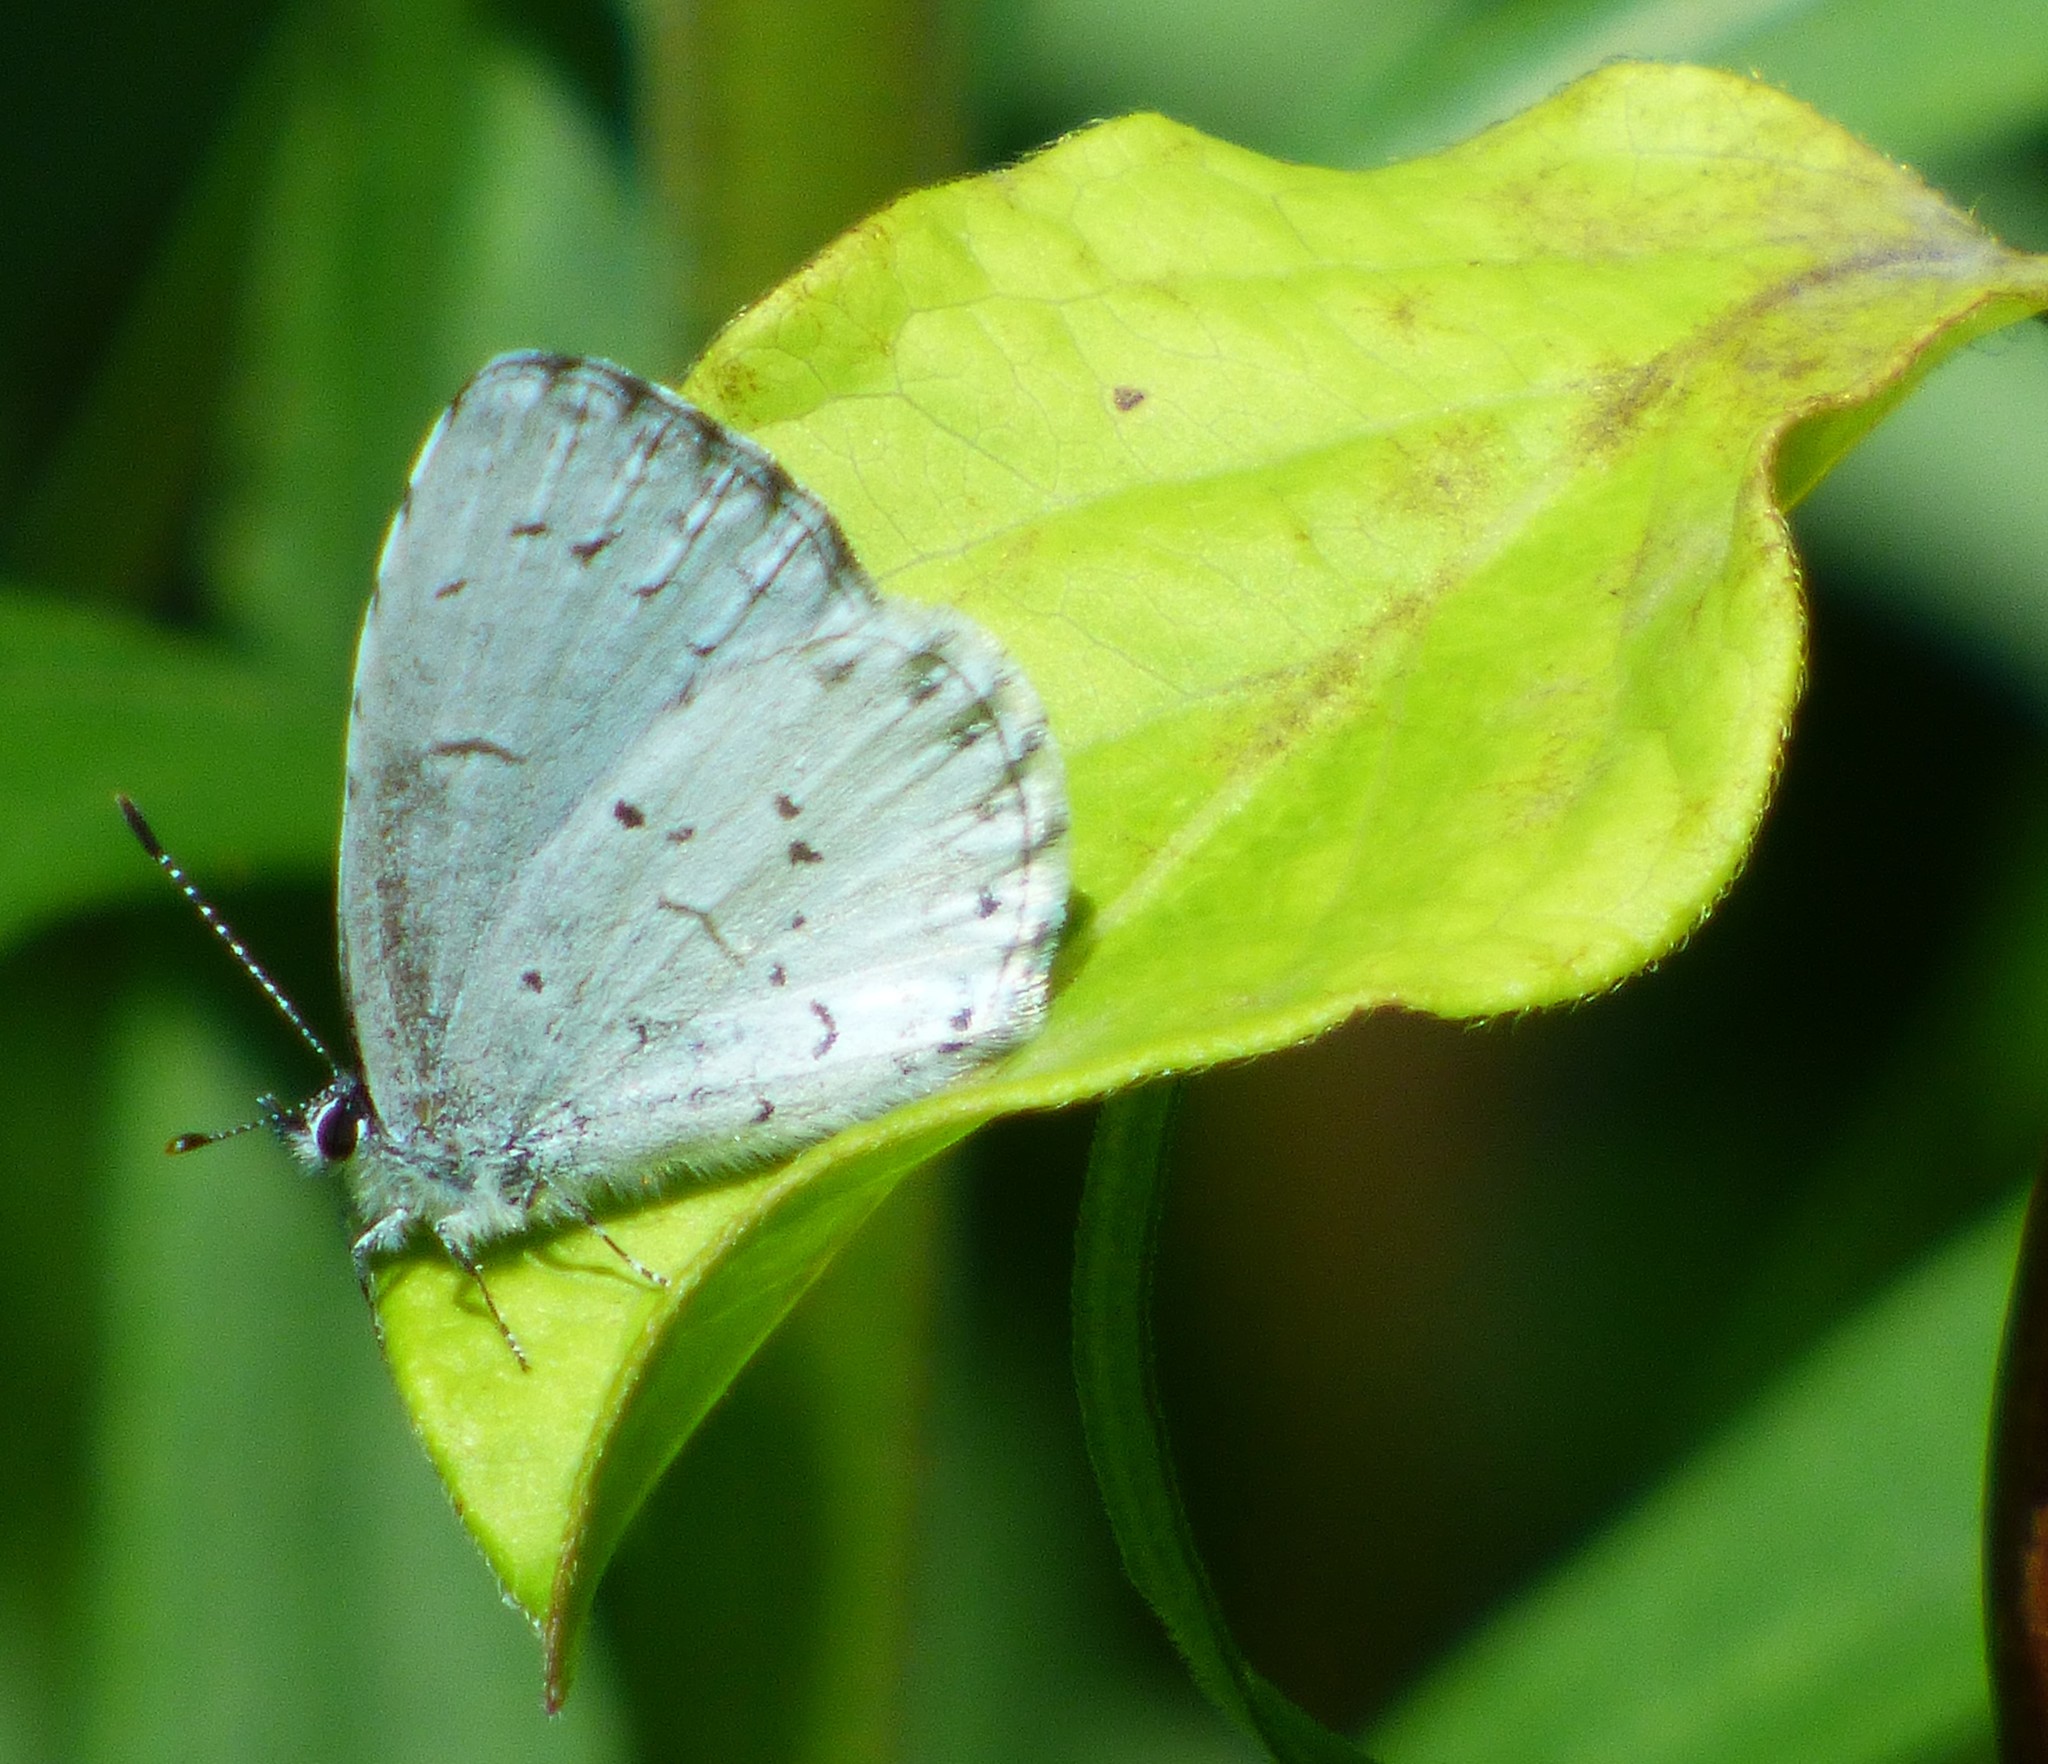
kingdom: Animalia
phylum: Arthropoda
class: Insecta
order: Lepidoptera
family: Lycaenidae
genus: Cyaniris
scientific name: Cyaniris neglecta
